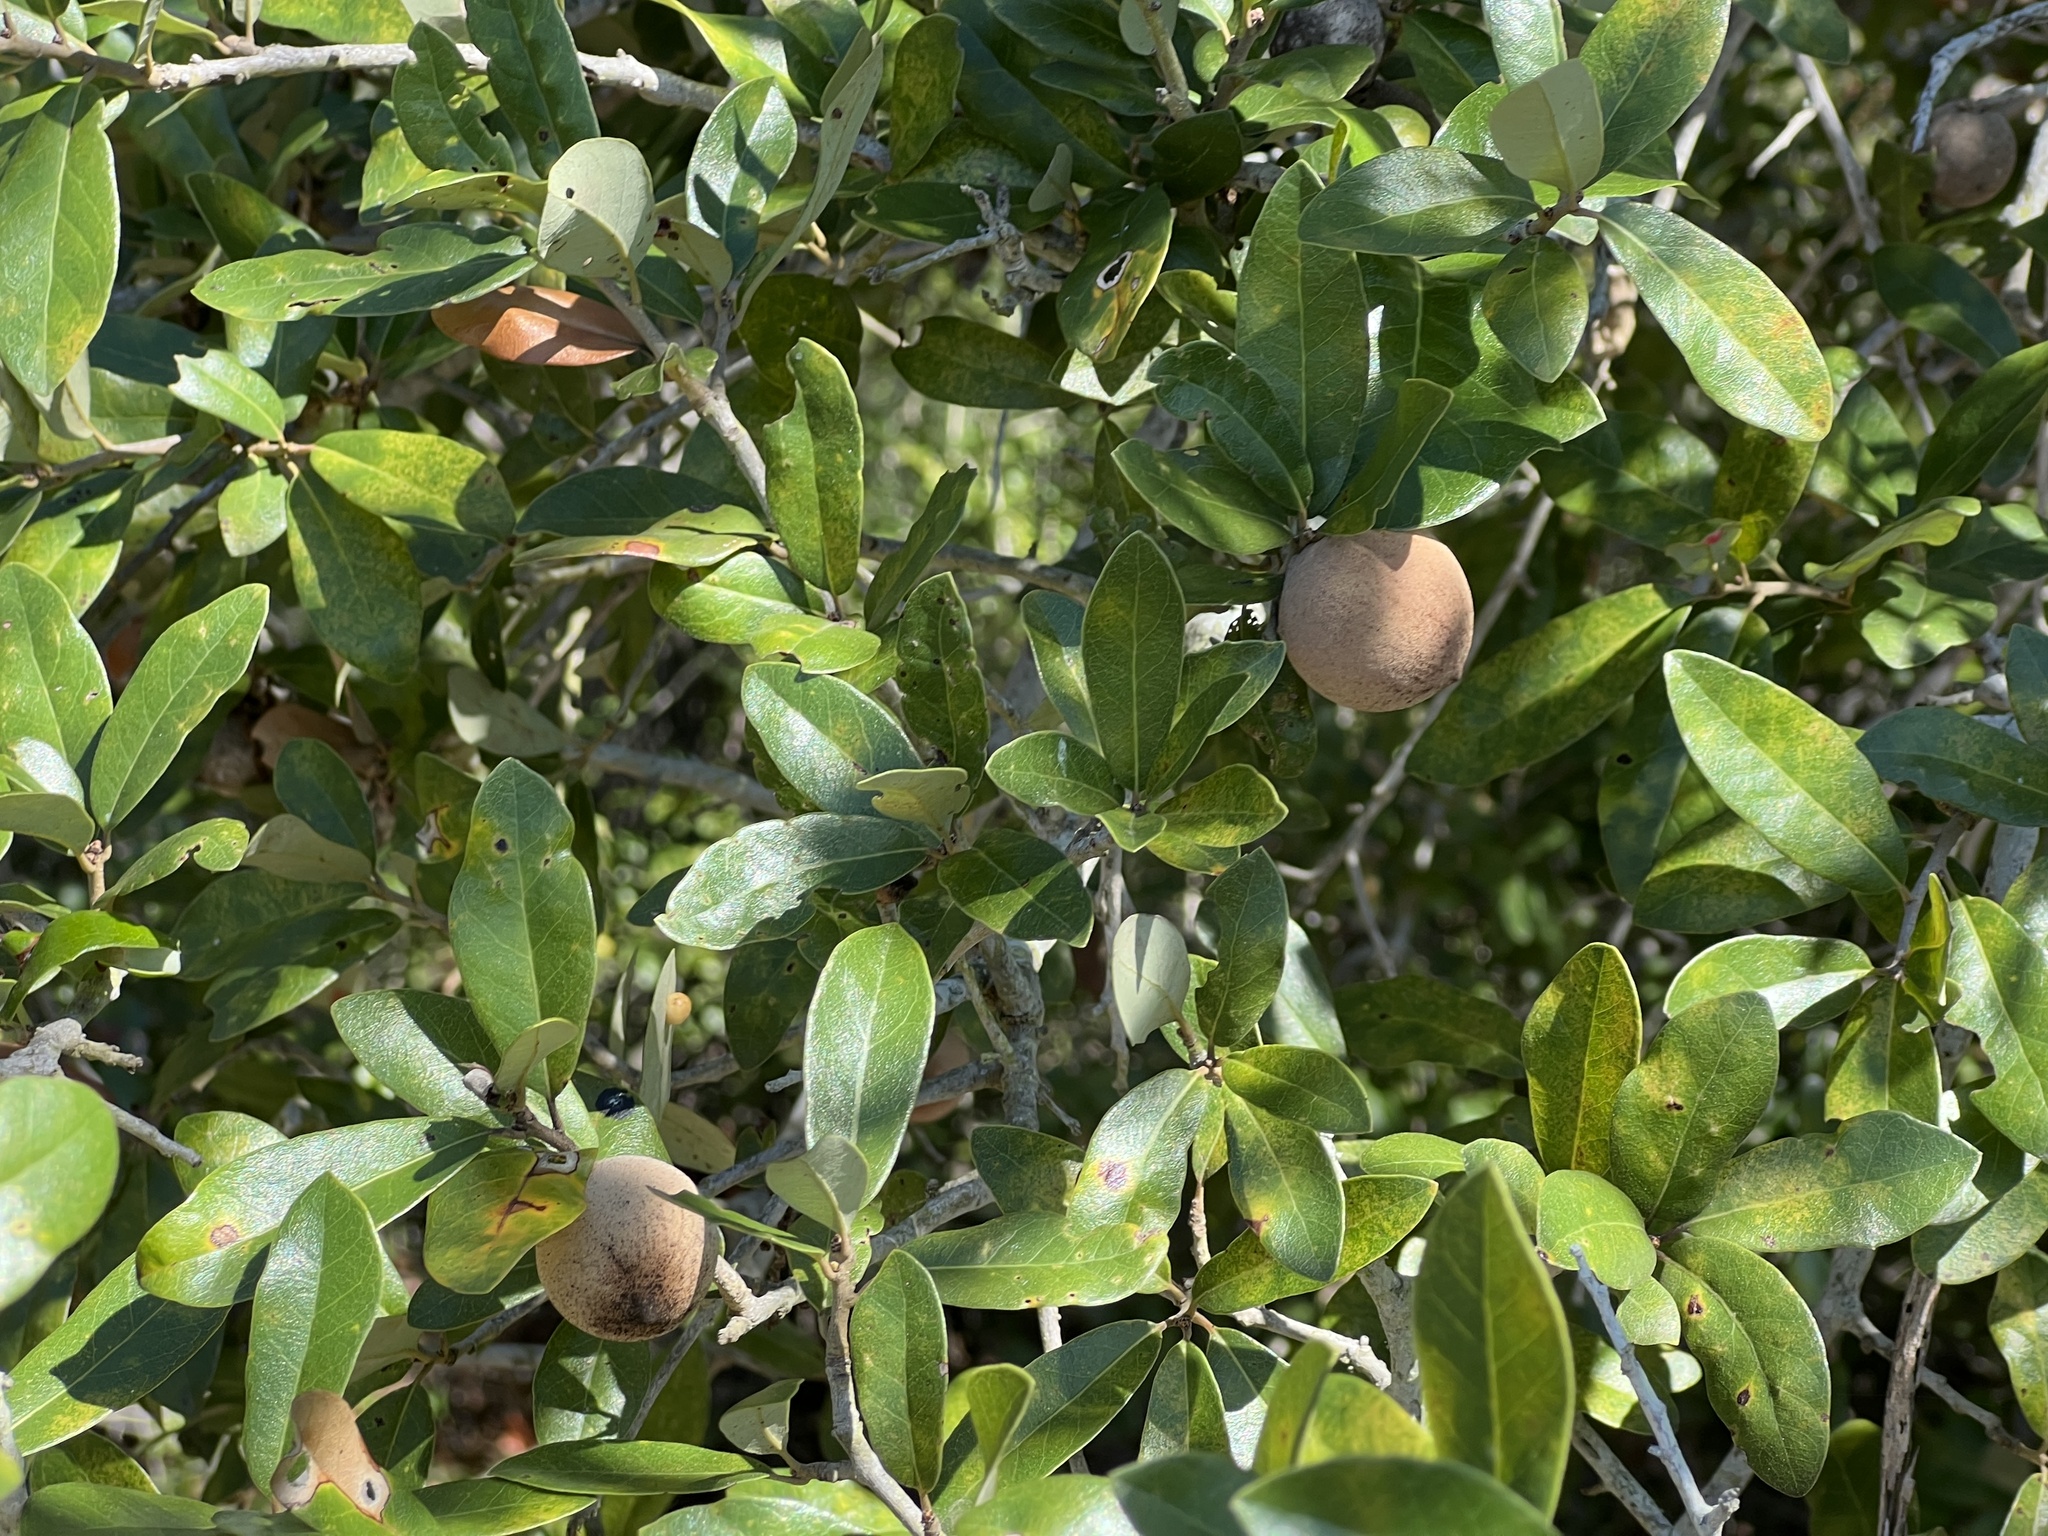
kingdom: Animalia
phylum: Arthropoda
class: Insecta
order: Hymenoptera
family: Cynipidae
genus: Disholcaspis
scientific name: Disholcaspis
